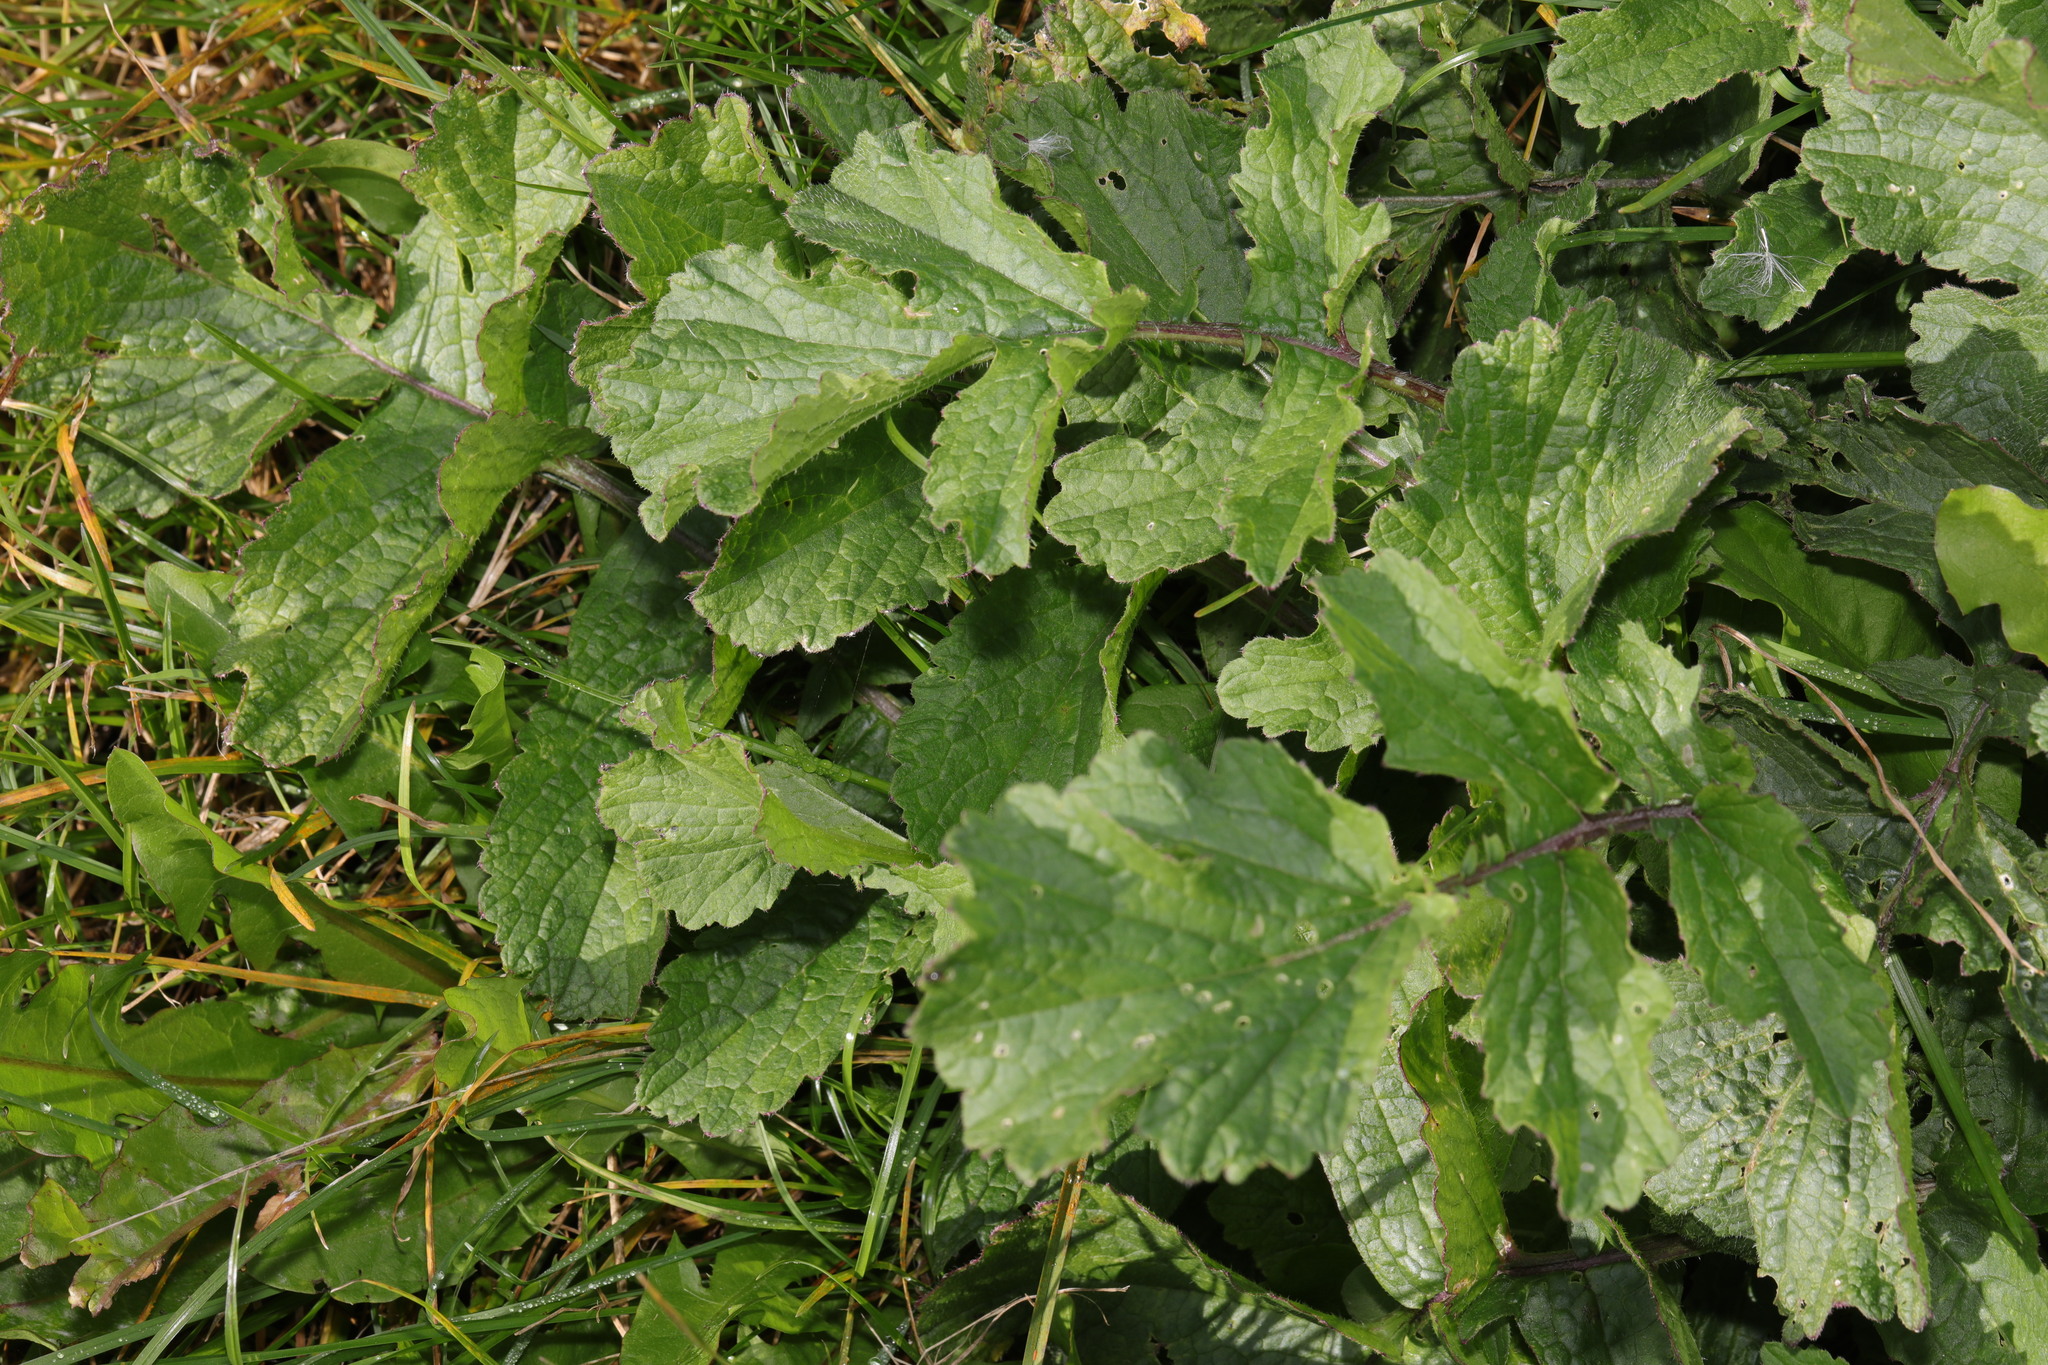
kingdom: Plantae
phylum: Tracheophyta
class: Magnoliopsida
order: Brassicales
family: Brassicaceae
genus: Raphanus
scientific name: Raphanus raphanistrum
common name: Wild radish
